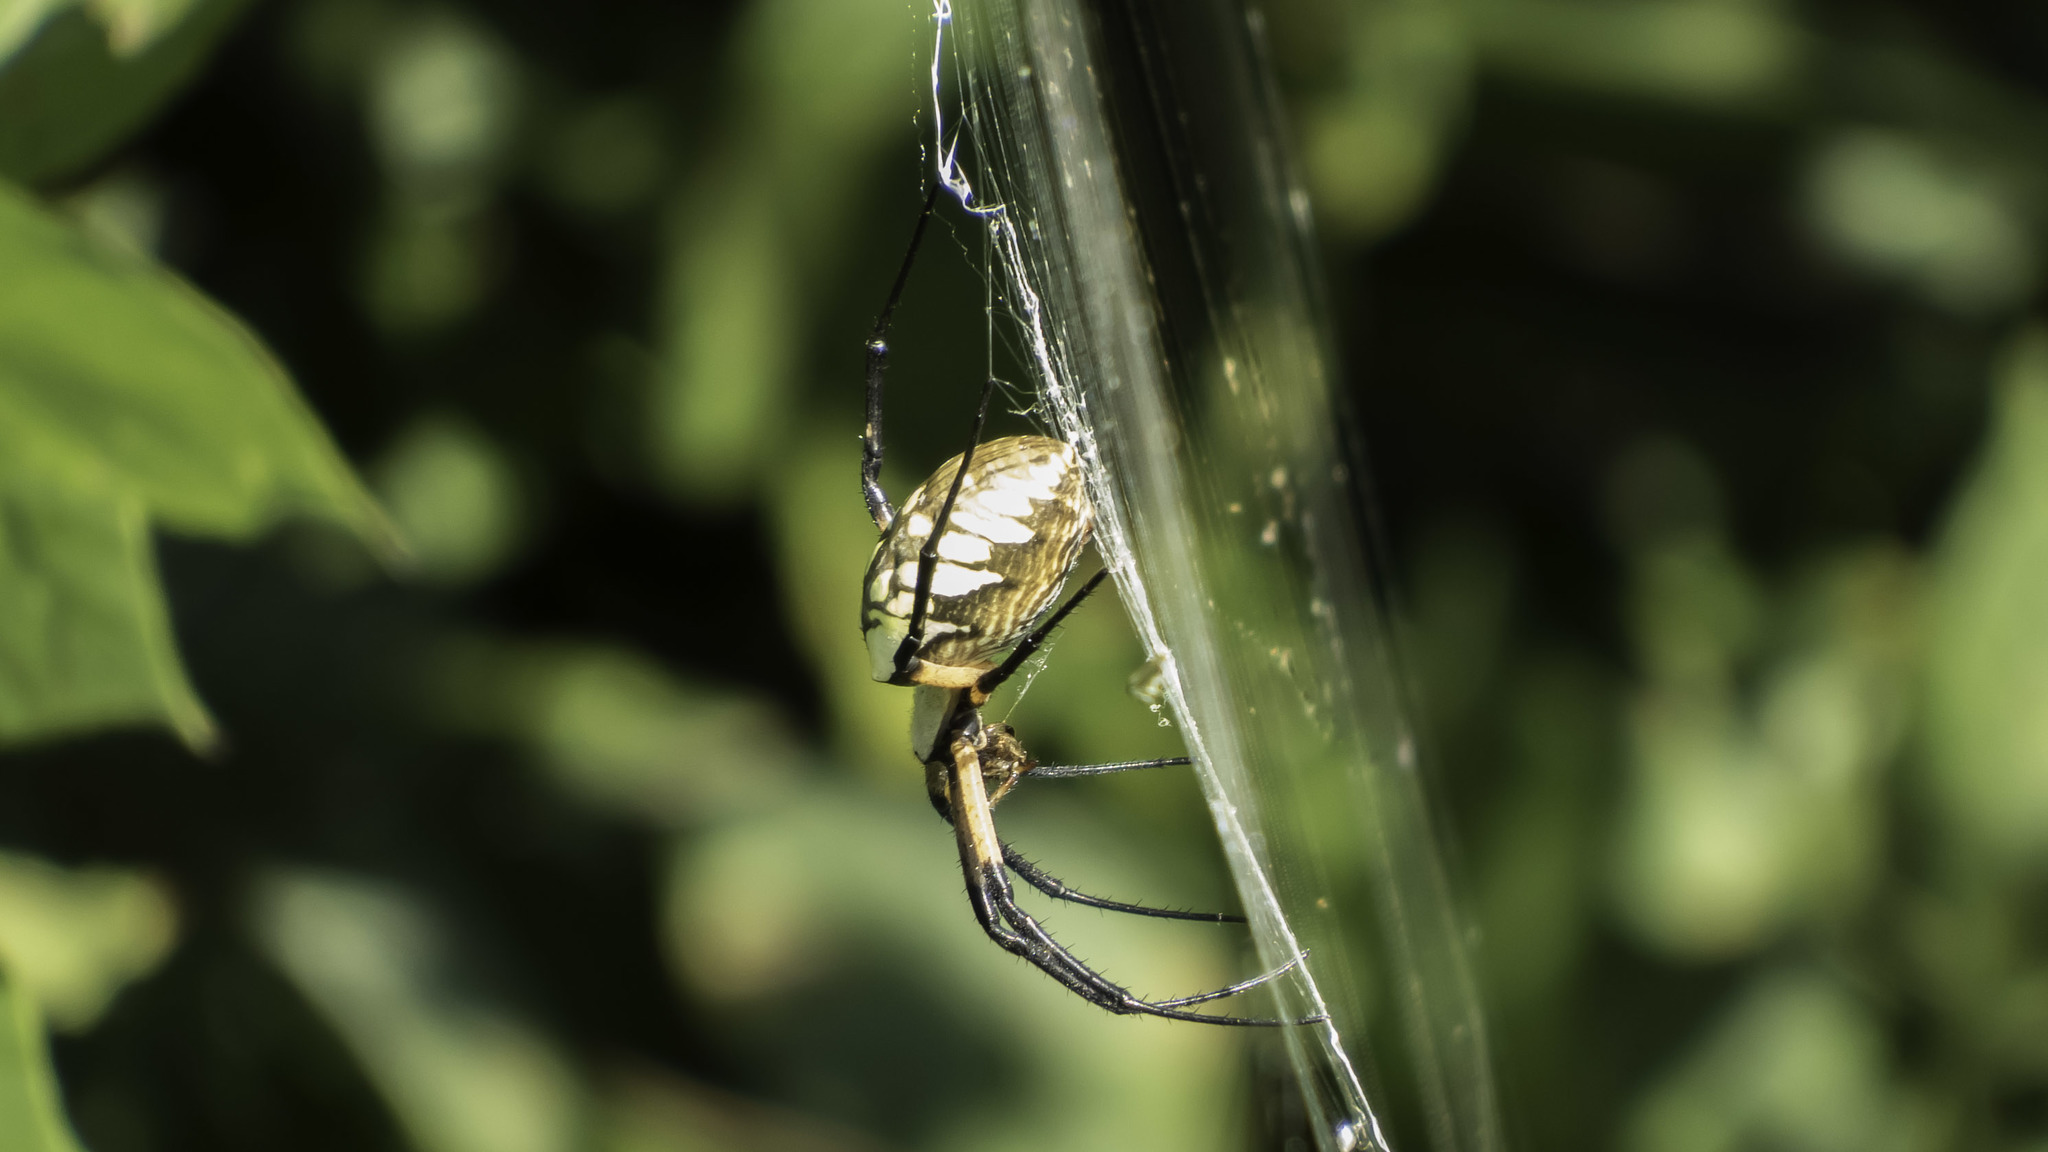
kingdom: Animalia
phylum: Arthropoda
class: Arachnida
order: Araneae
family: Araneidae
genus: Argiope
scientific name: Argiope aurantia
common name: Orb weavers
